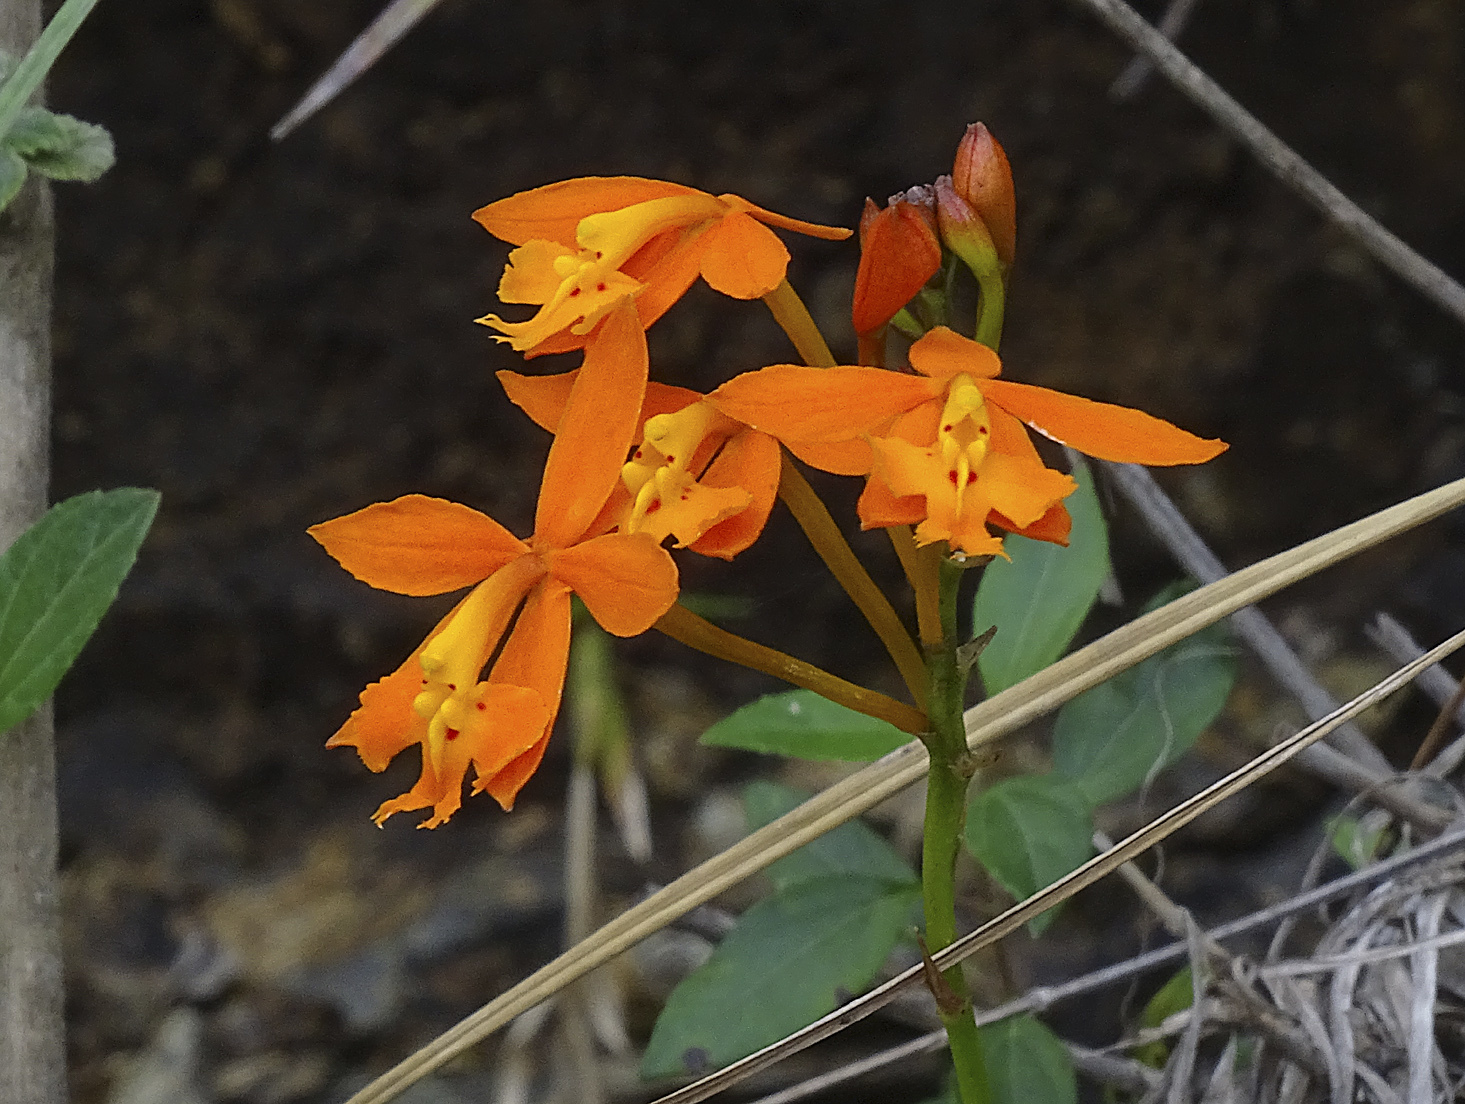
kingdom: Plantae
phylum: Tracheophyta
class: Liliopsida
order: Asparagales
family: Orchidaceae
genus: Epidendrum
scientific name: Epidendrum radicans
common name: Fire star orchid
